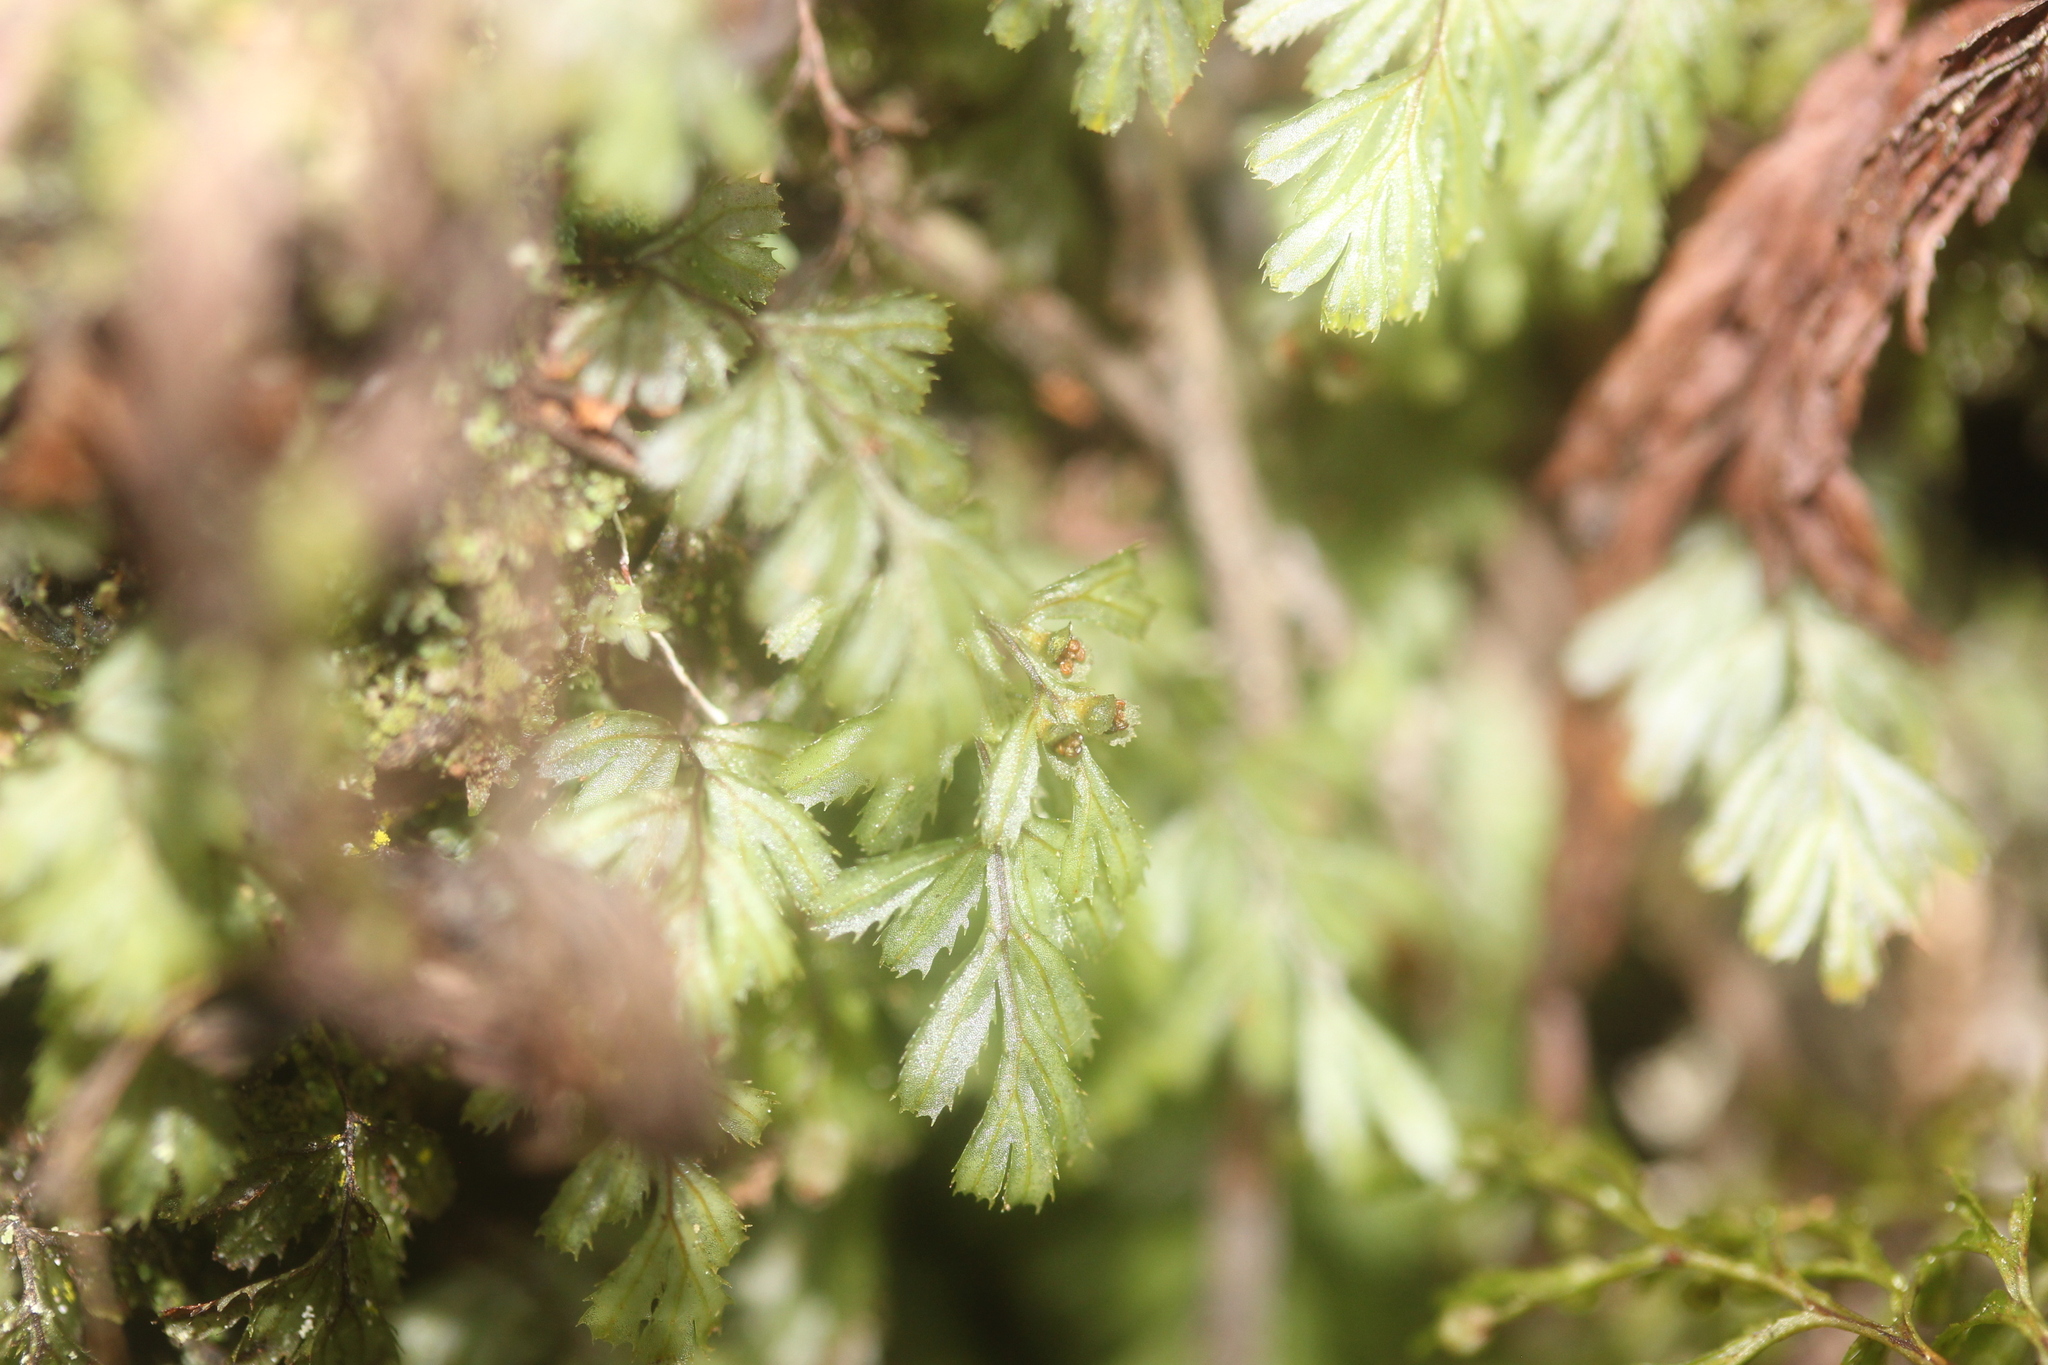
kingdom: Plantae
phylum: Tracheophyta
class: Polypodiopsida
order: Hymenophyllales
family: Hymenophyllaceae
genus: Hymenophyllum
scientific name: Hymenophyllum revolutum
